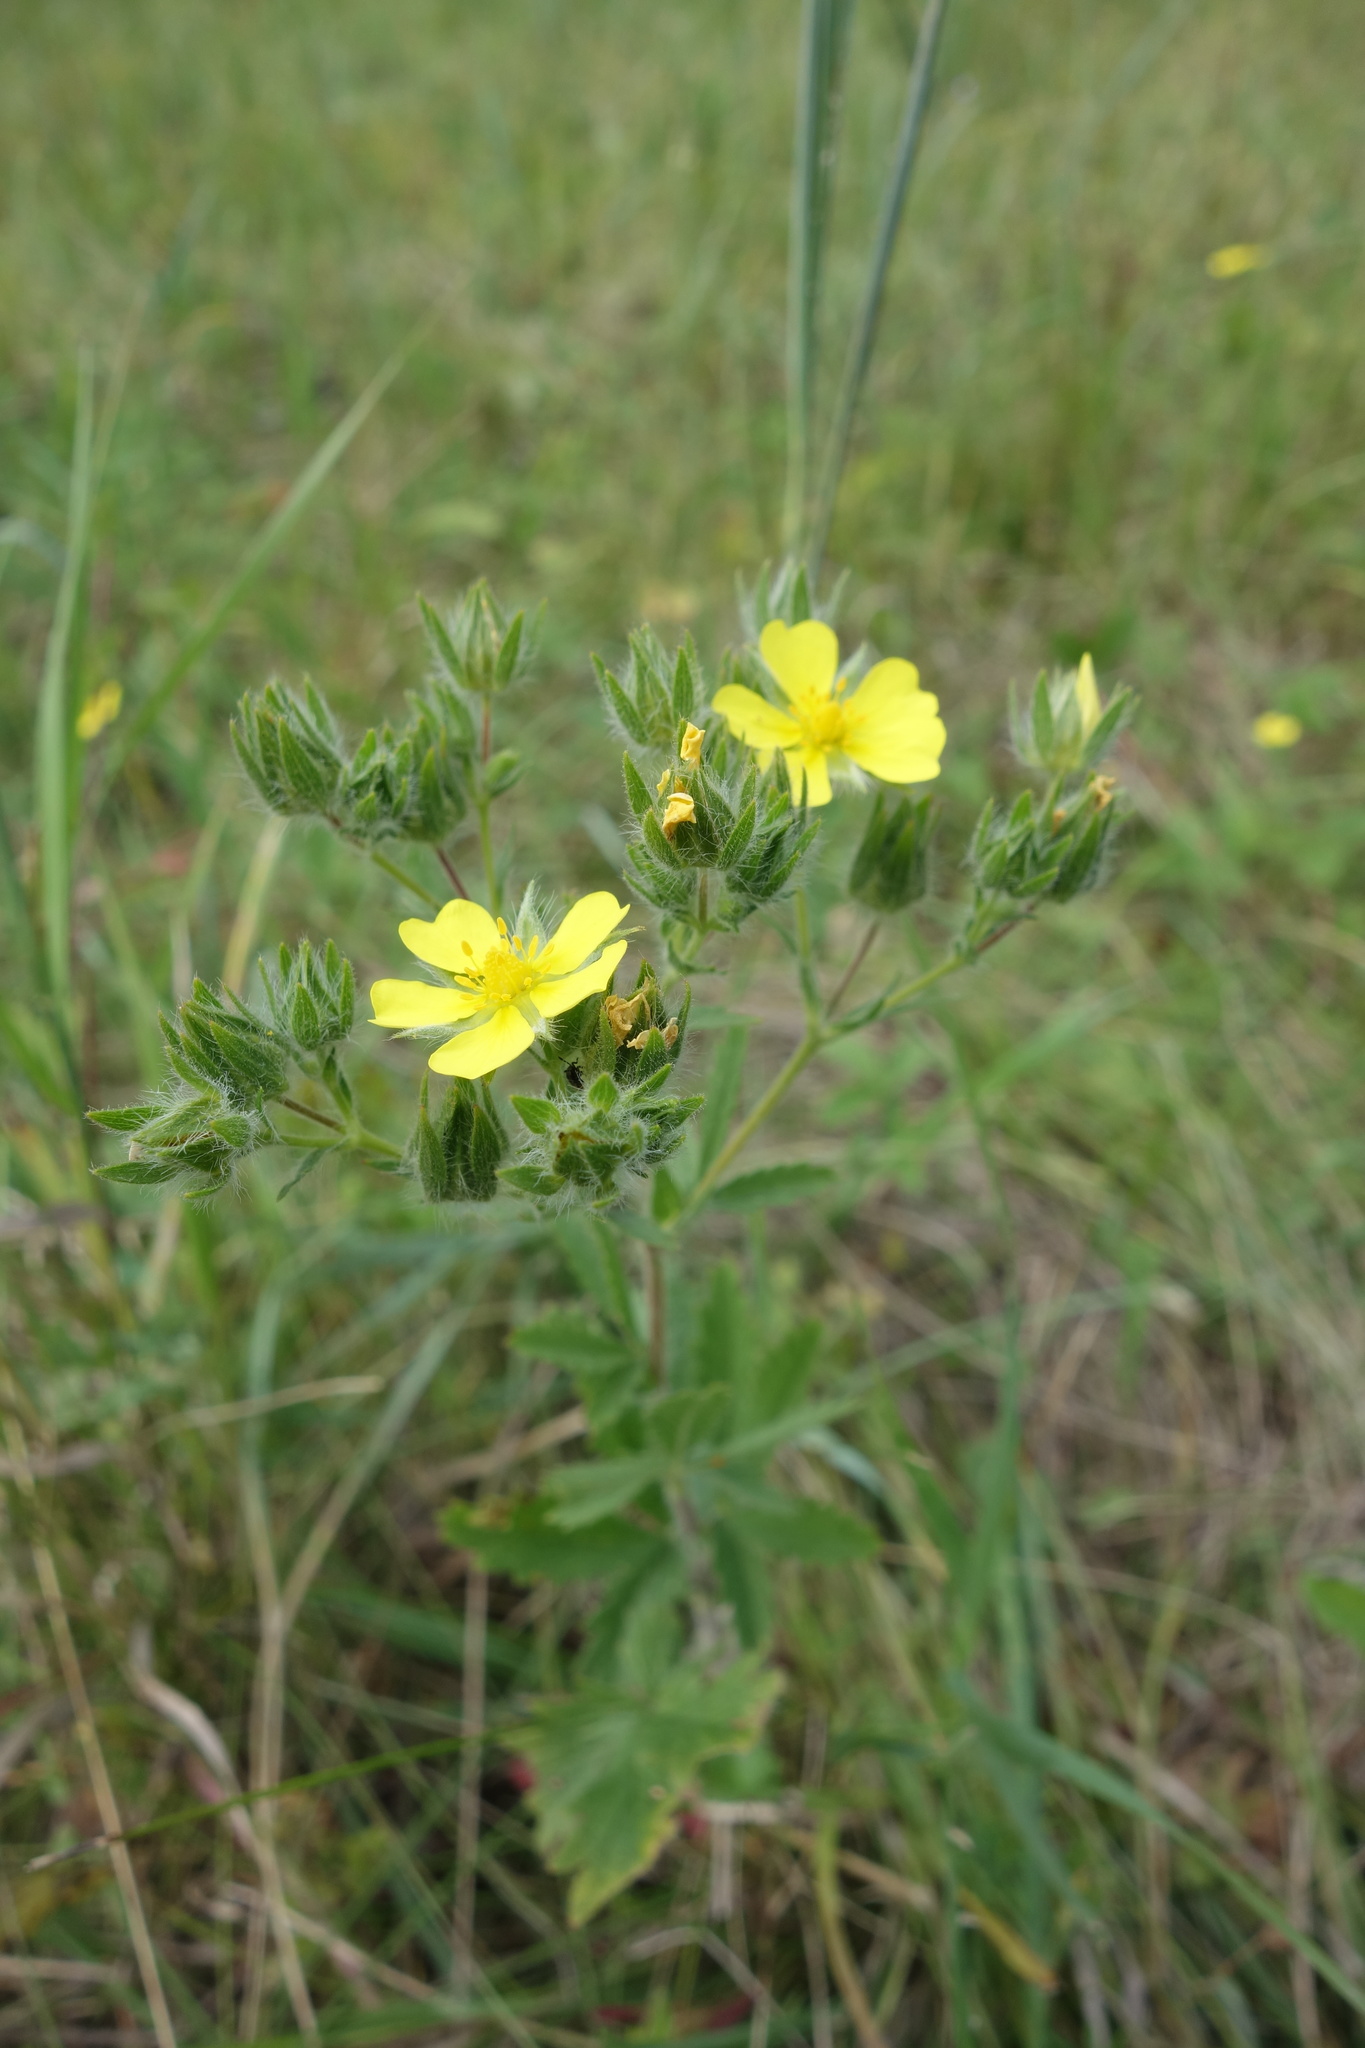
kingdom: Plantae
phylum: Tracheophyta
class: Magnoliopsida
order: Rosales
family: Rosaceae
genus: Potentilla
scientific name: Potentilla recta
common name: Sulphur cinquefoil
